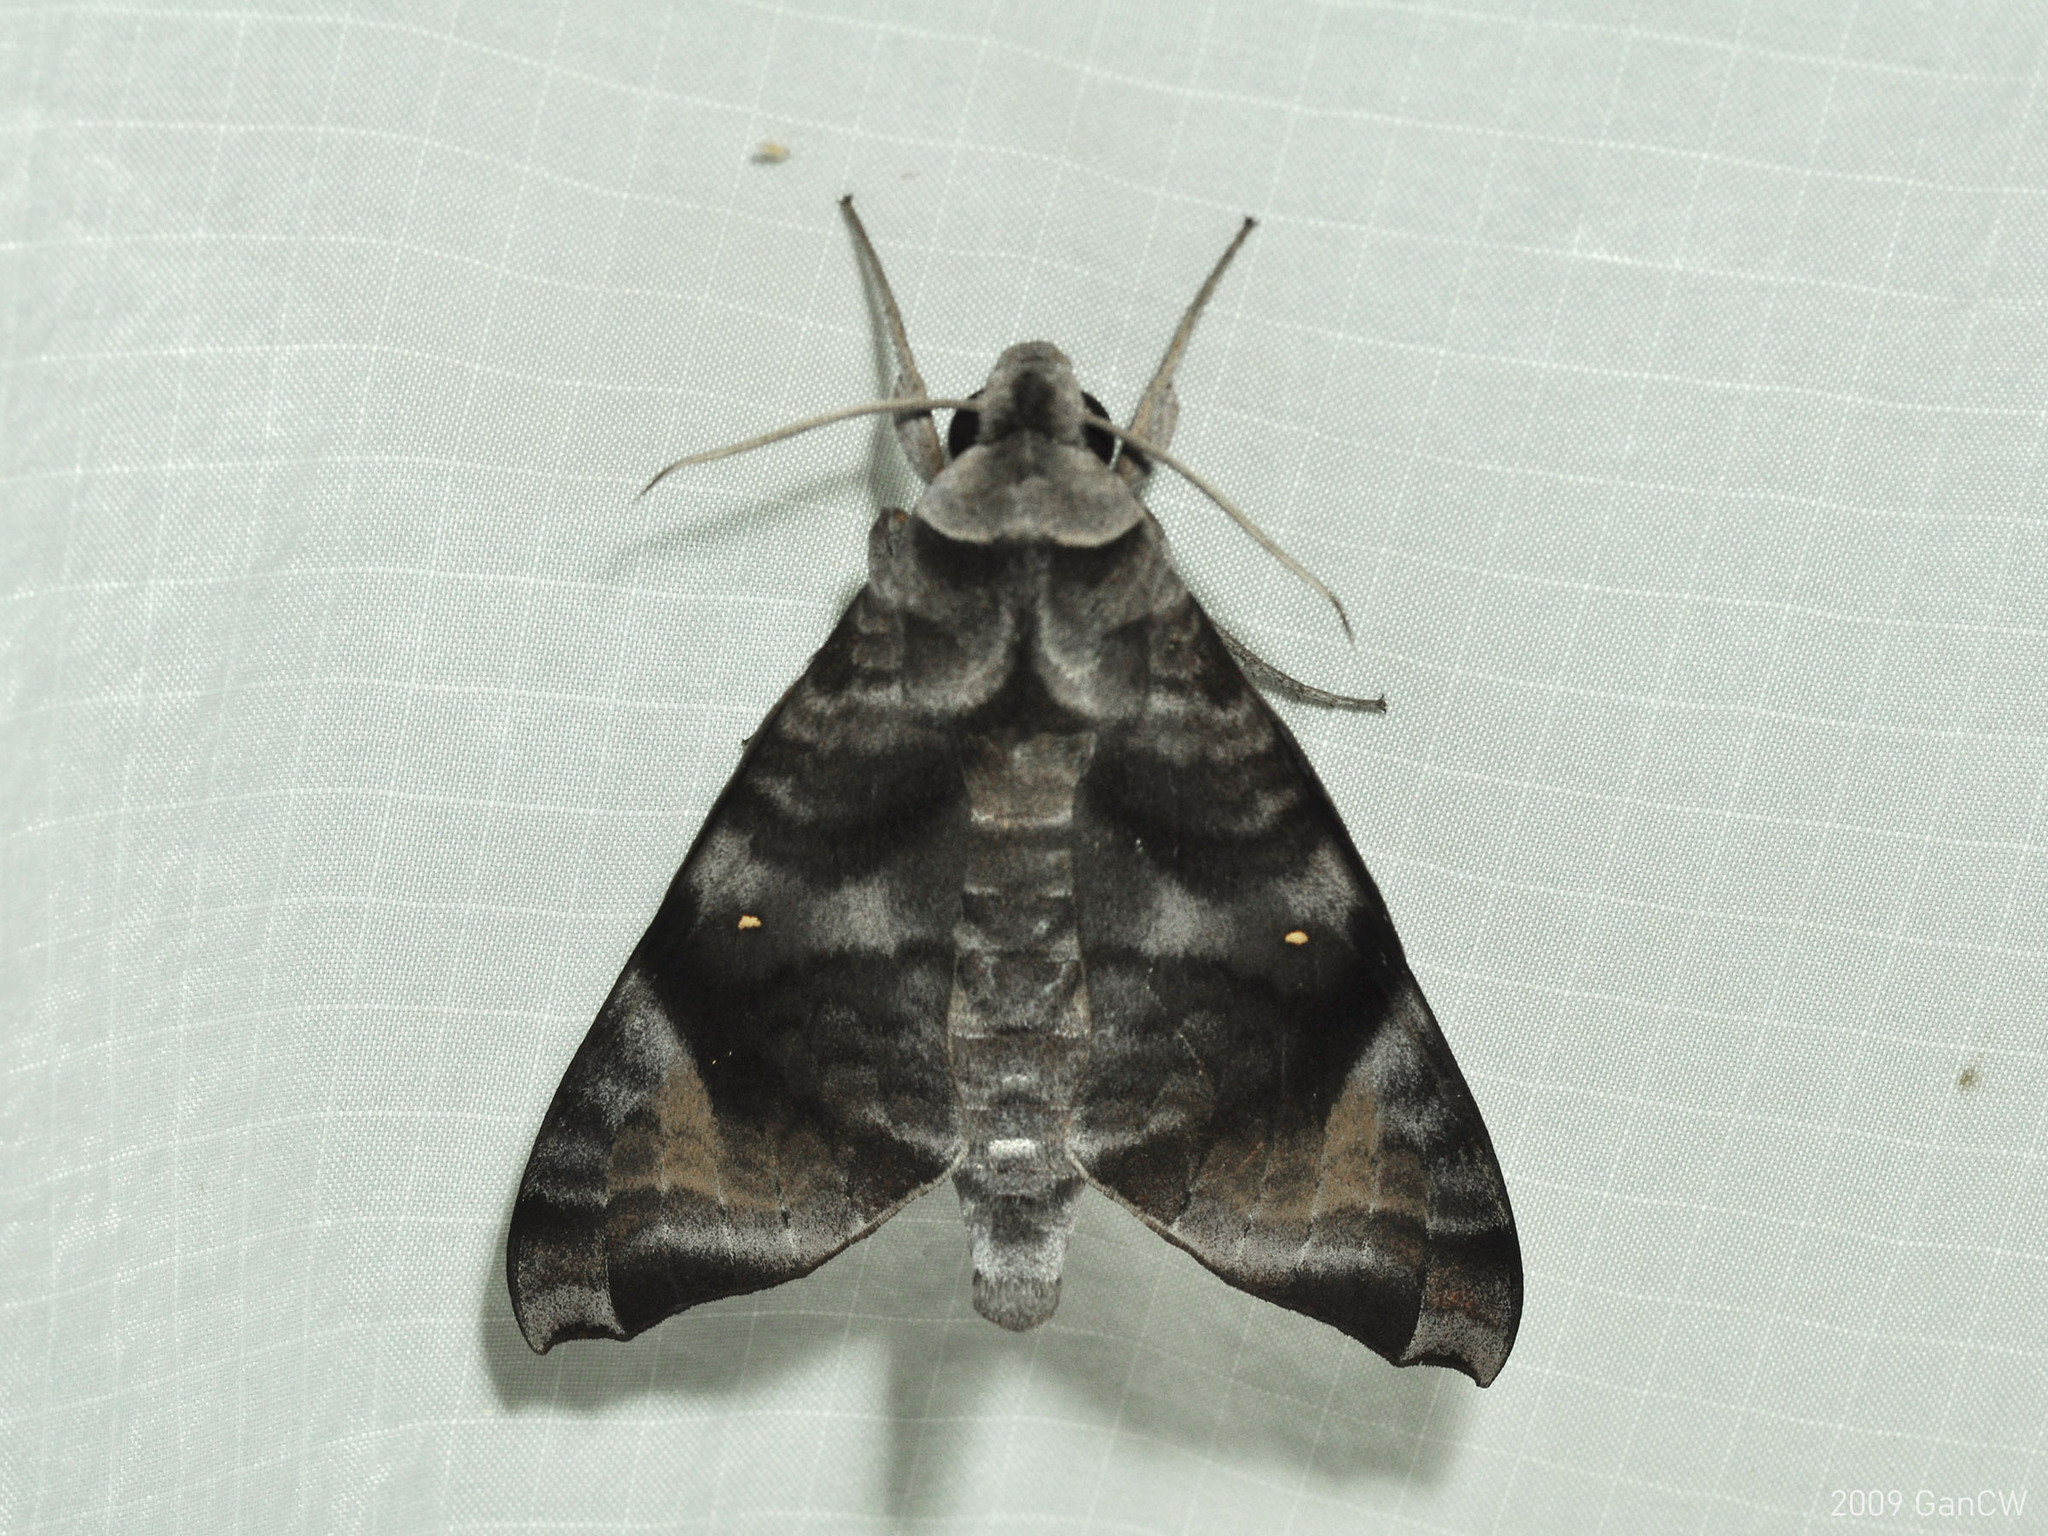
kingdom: Animalia
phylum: Arthropoda
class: Insecta
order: Lepidoptera
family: Sphingidae
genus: Acosmeryx
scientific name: Acosmeryx pseudonaga
